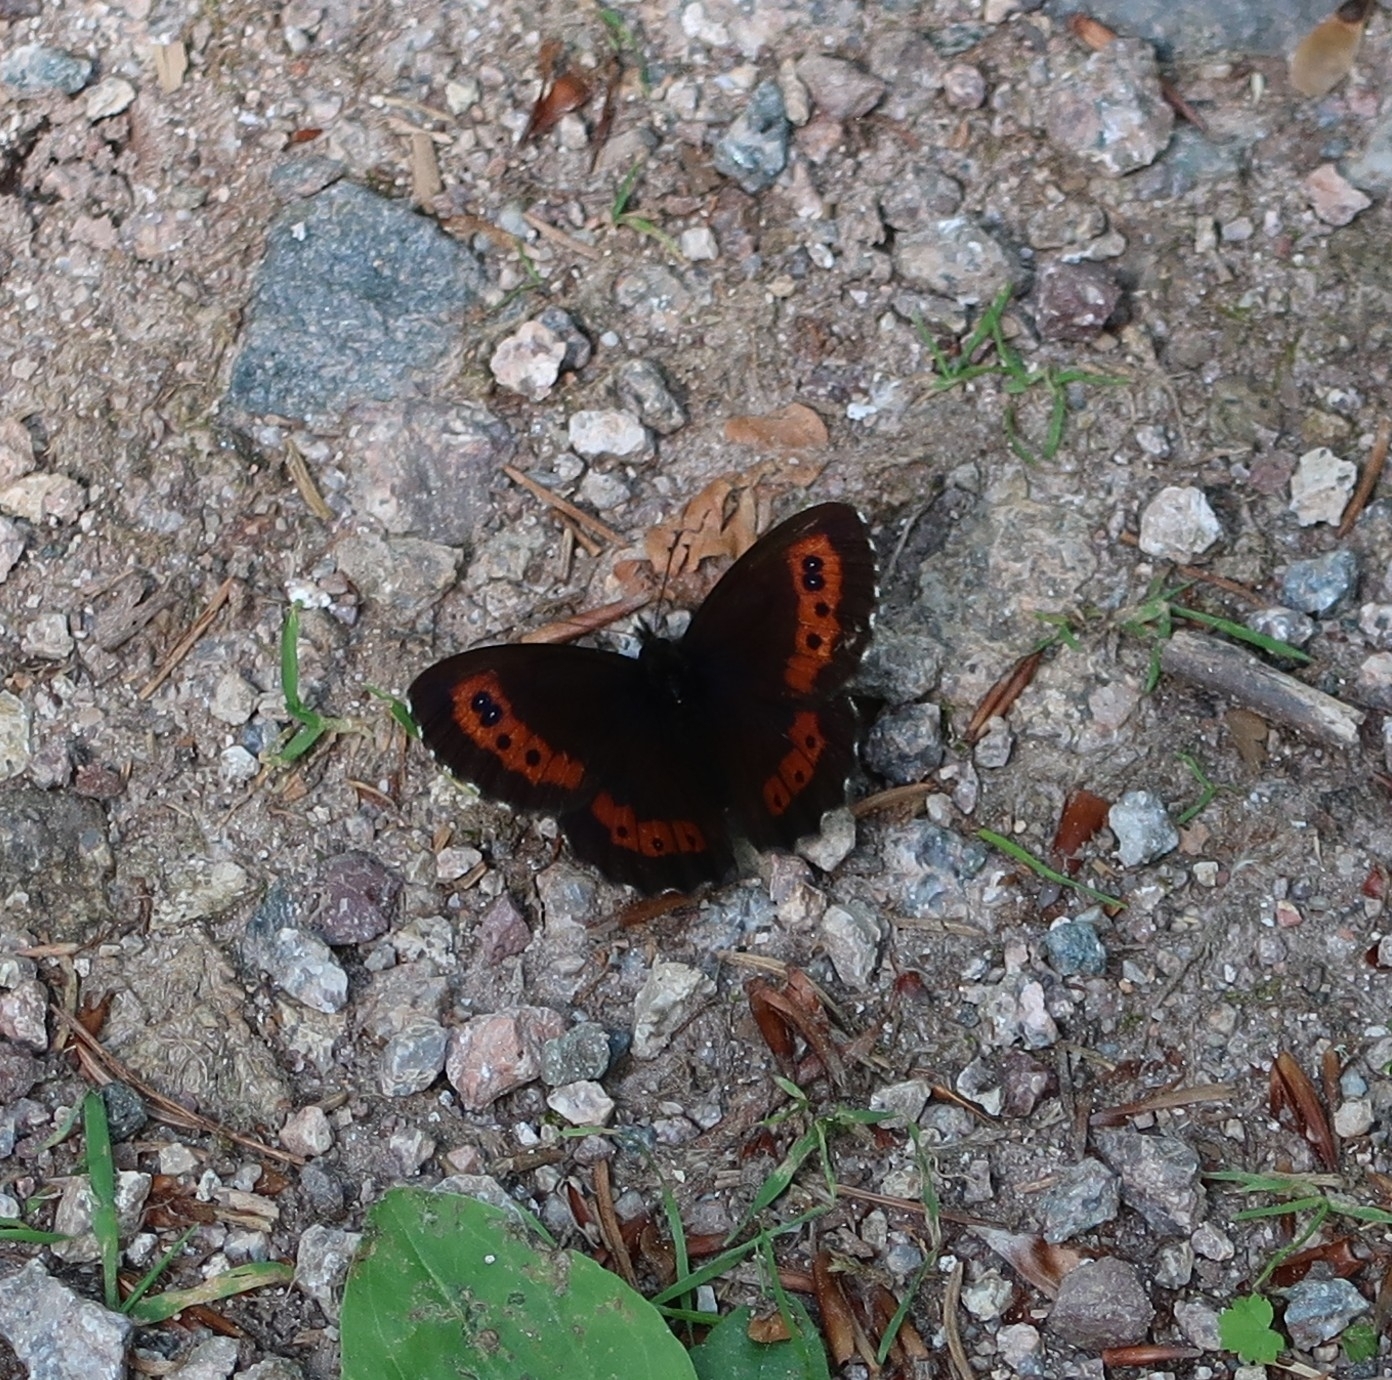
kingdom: Animalia
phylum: Arthropoda
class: Insecta
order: Lepidoptera
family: Nymphalidae
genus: Erebia
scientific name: Erebia ligea
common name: Arran brown
